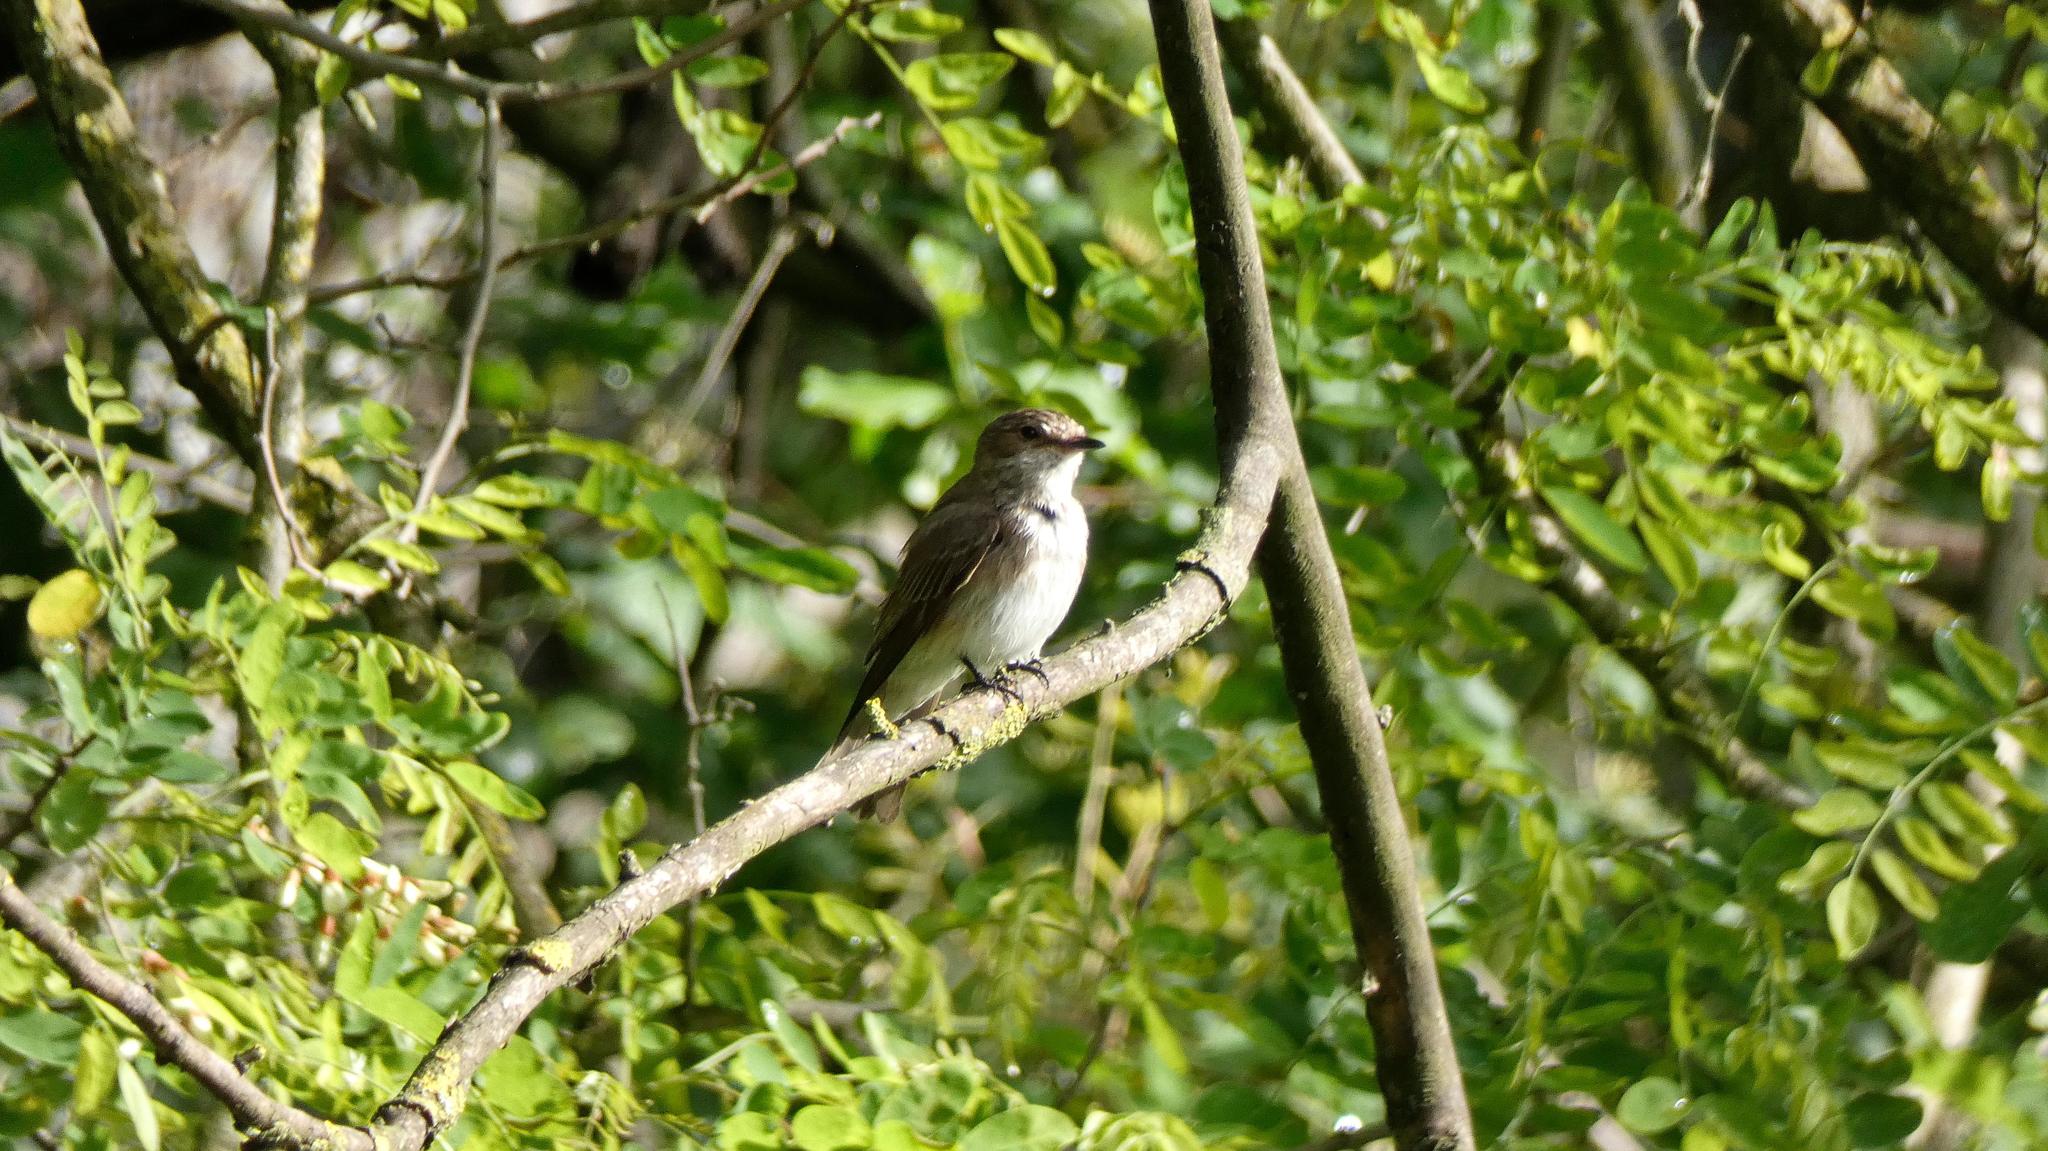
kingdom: Animalia
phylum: Chordata
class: Aves
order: Passeriformes
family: Muscicapidae
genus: Muscicapa
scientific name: Muscicapa striata
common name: Spotted flycatcher
